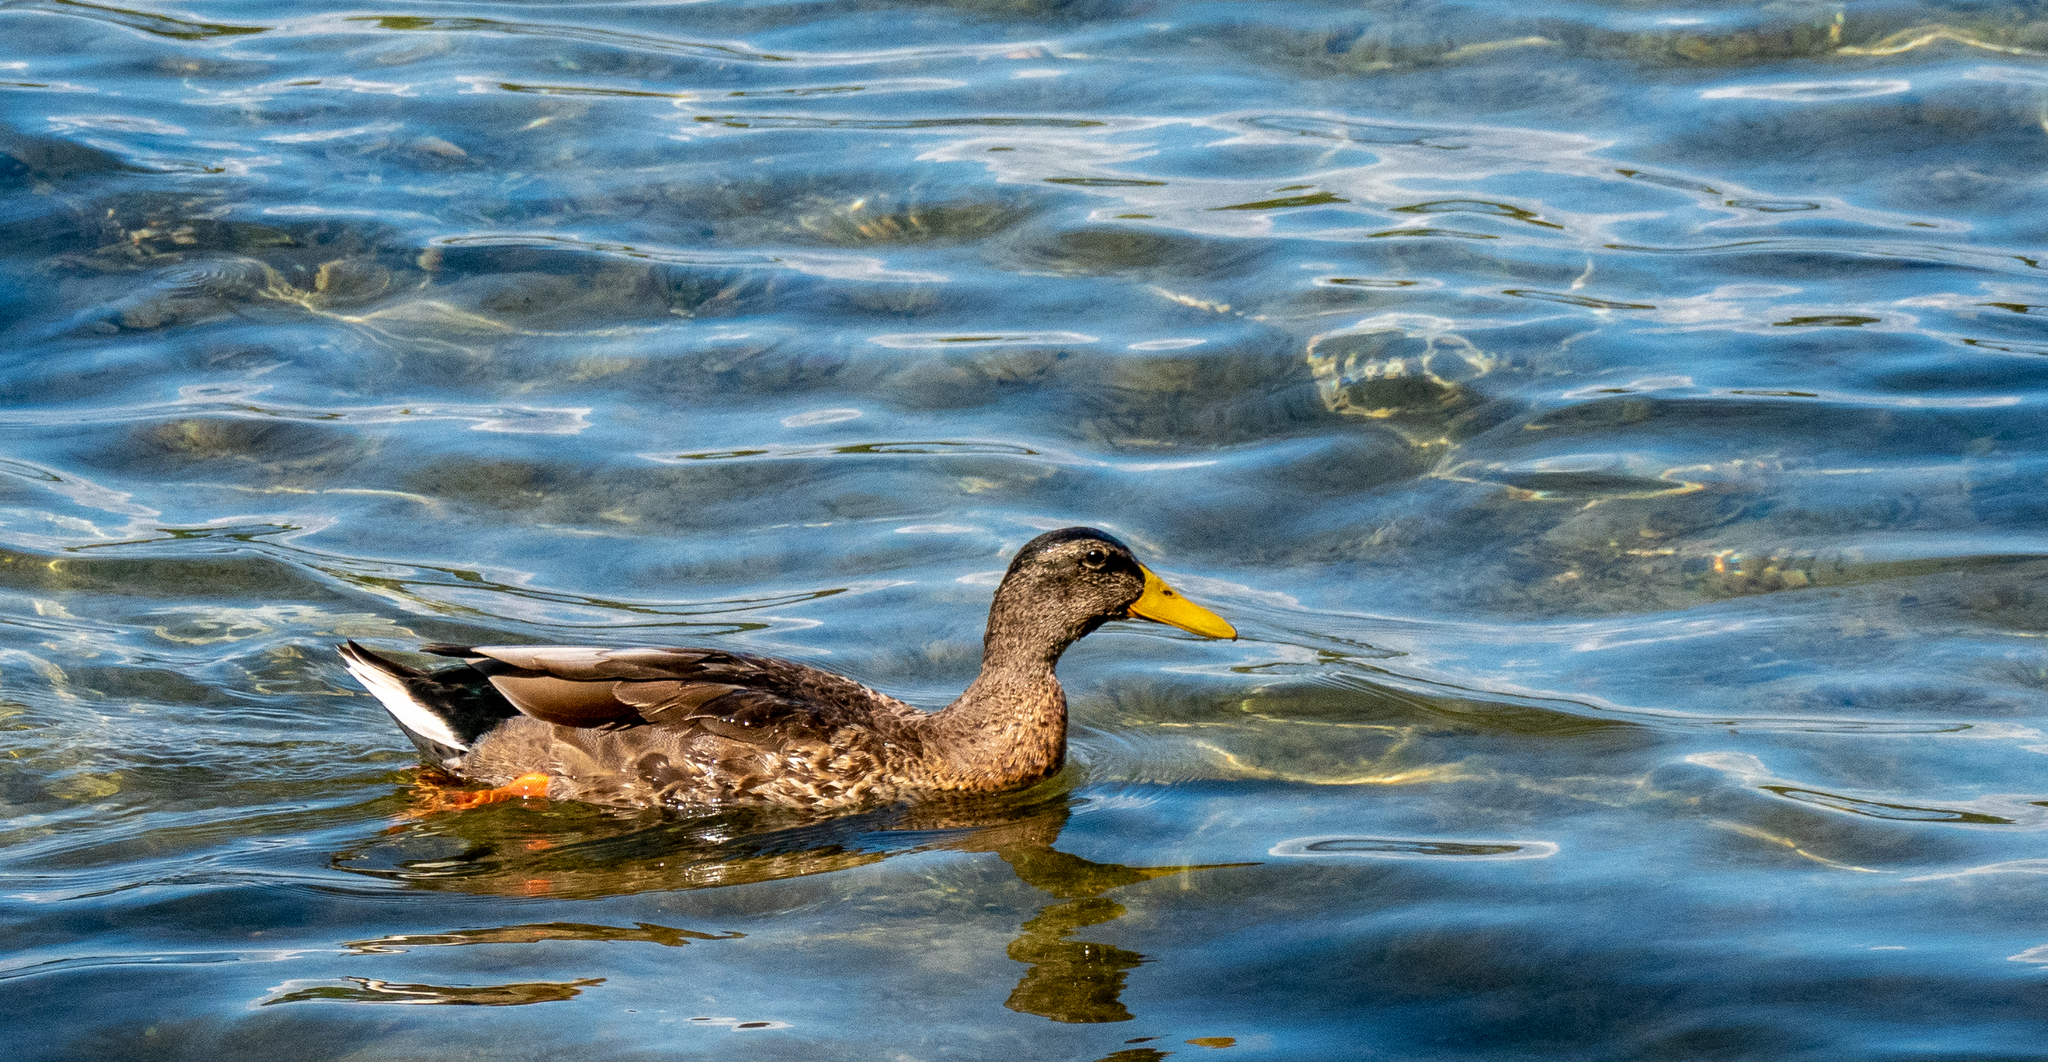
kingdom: Animalia
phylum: Chordata
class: Aves
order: Anseriformes
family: Anatidae
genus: Anas
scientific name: Anas platyrhynchos
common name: Mallard
